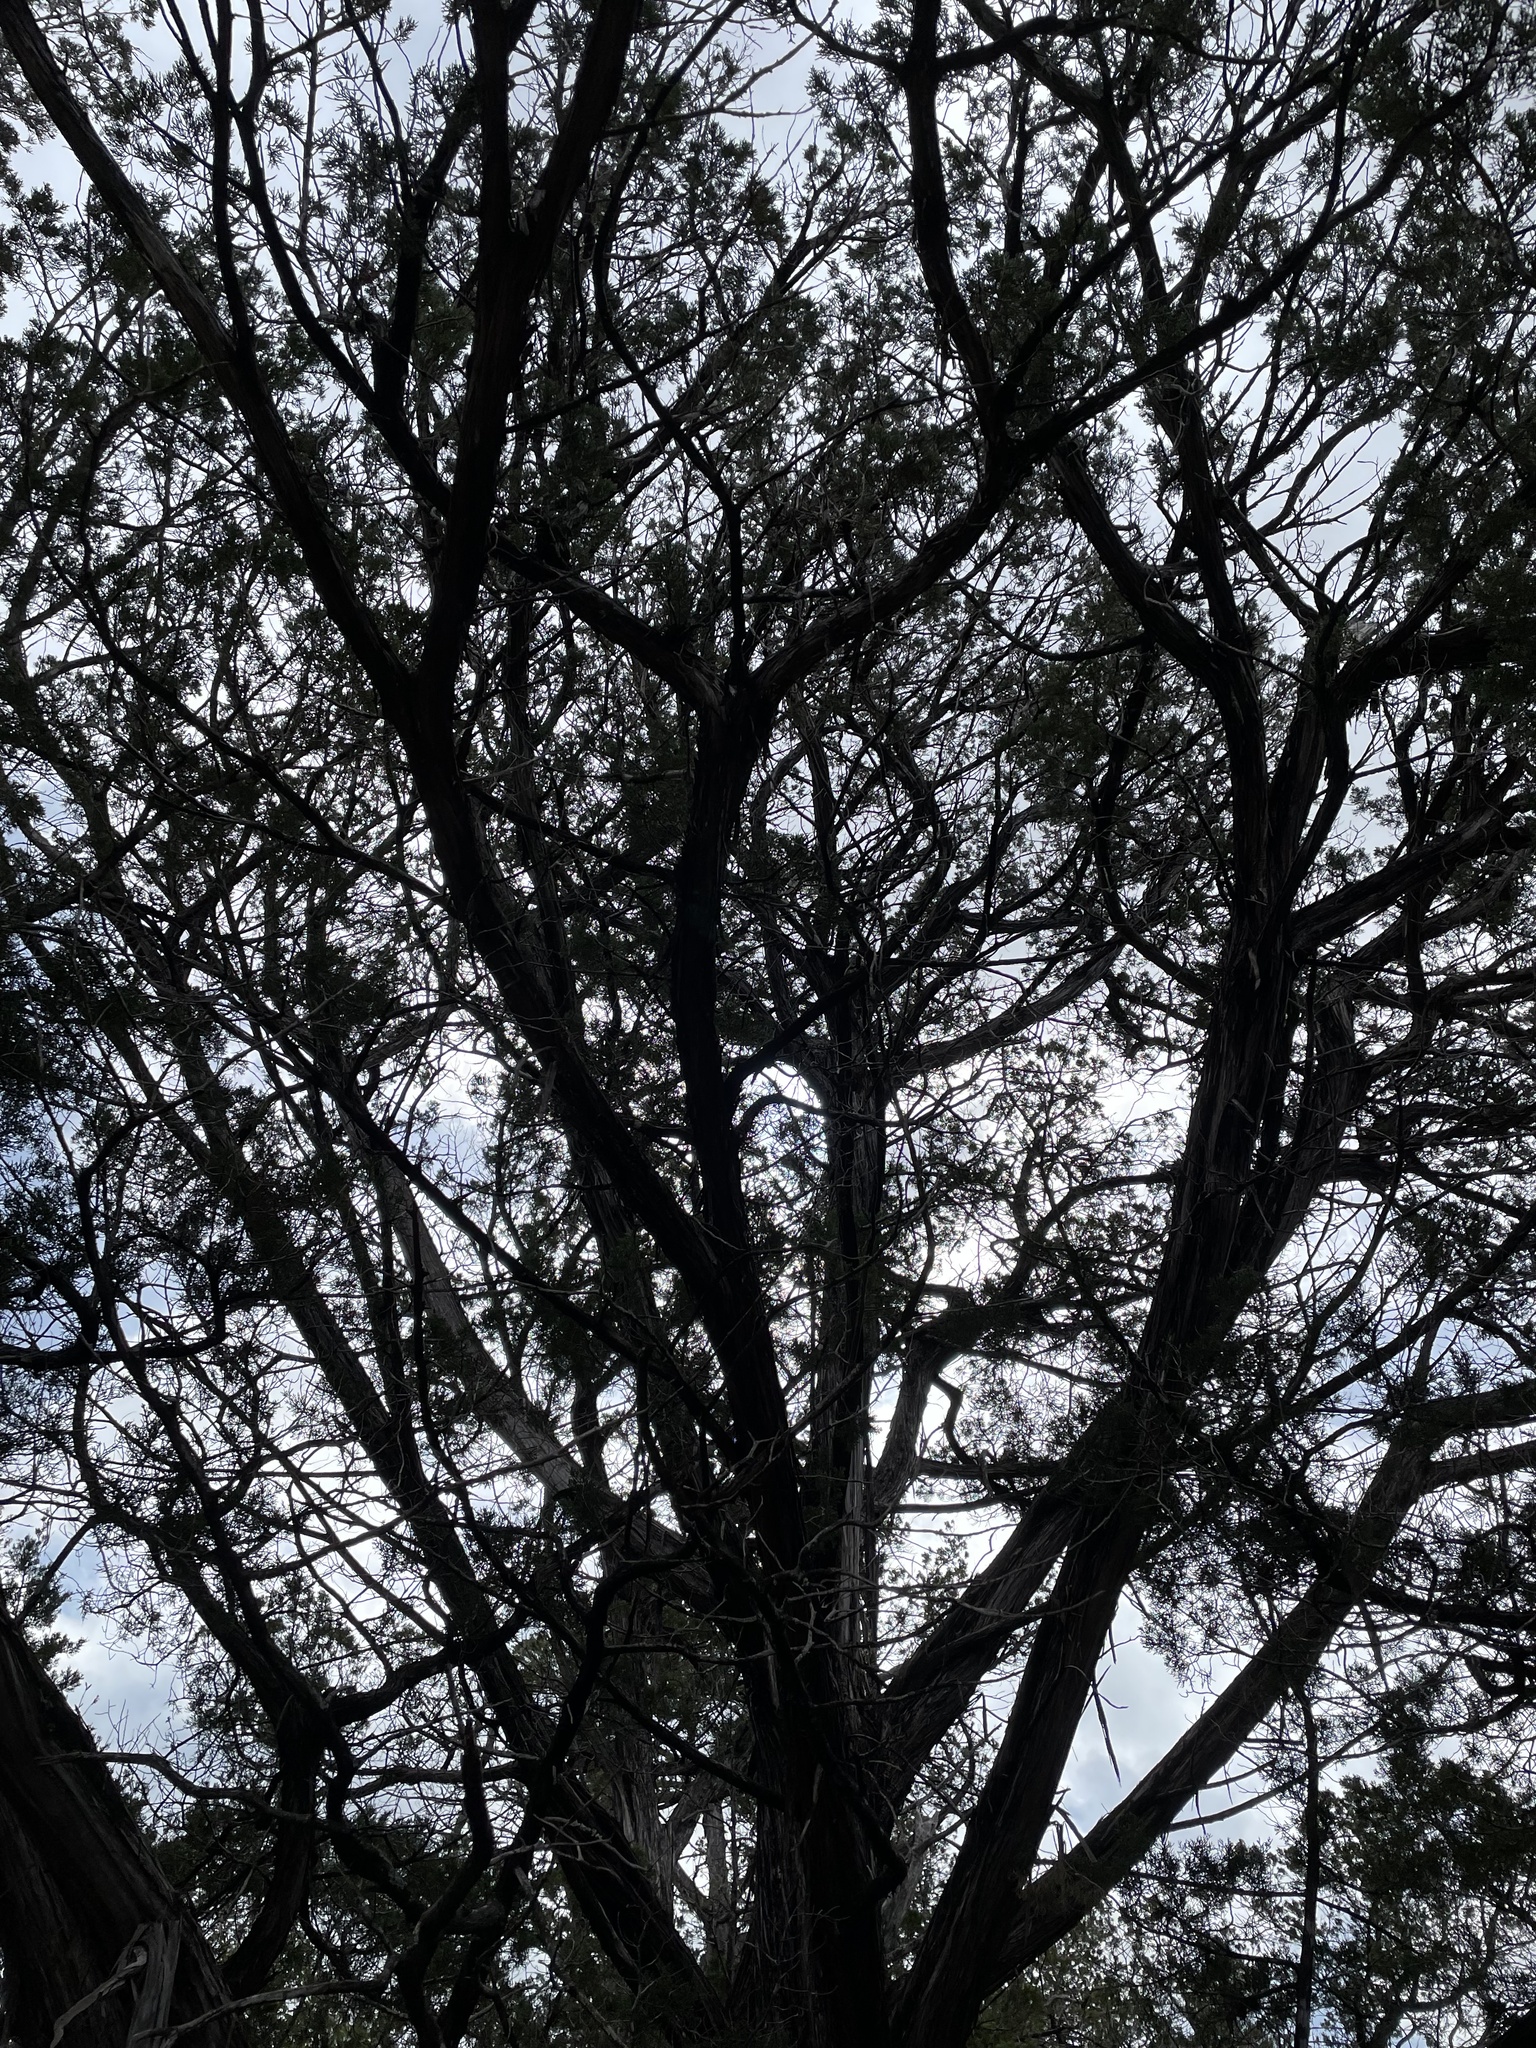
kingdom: Plantae
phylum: Tracheophyta
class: Pinopsida
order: Pinales
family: Cupressaceae
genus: Juniperus
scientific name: Juniperus ashei
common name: Mexican juniper
